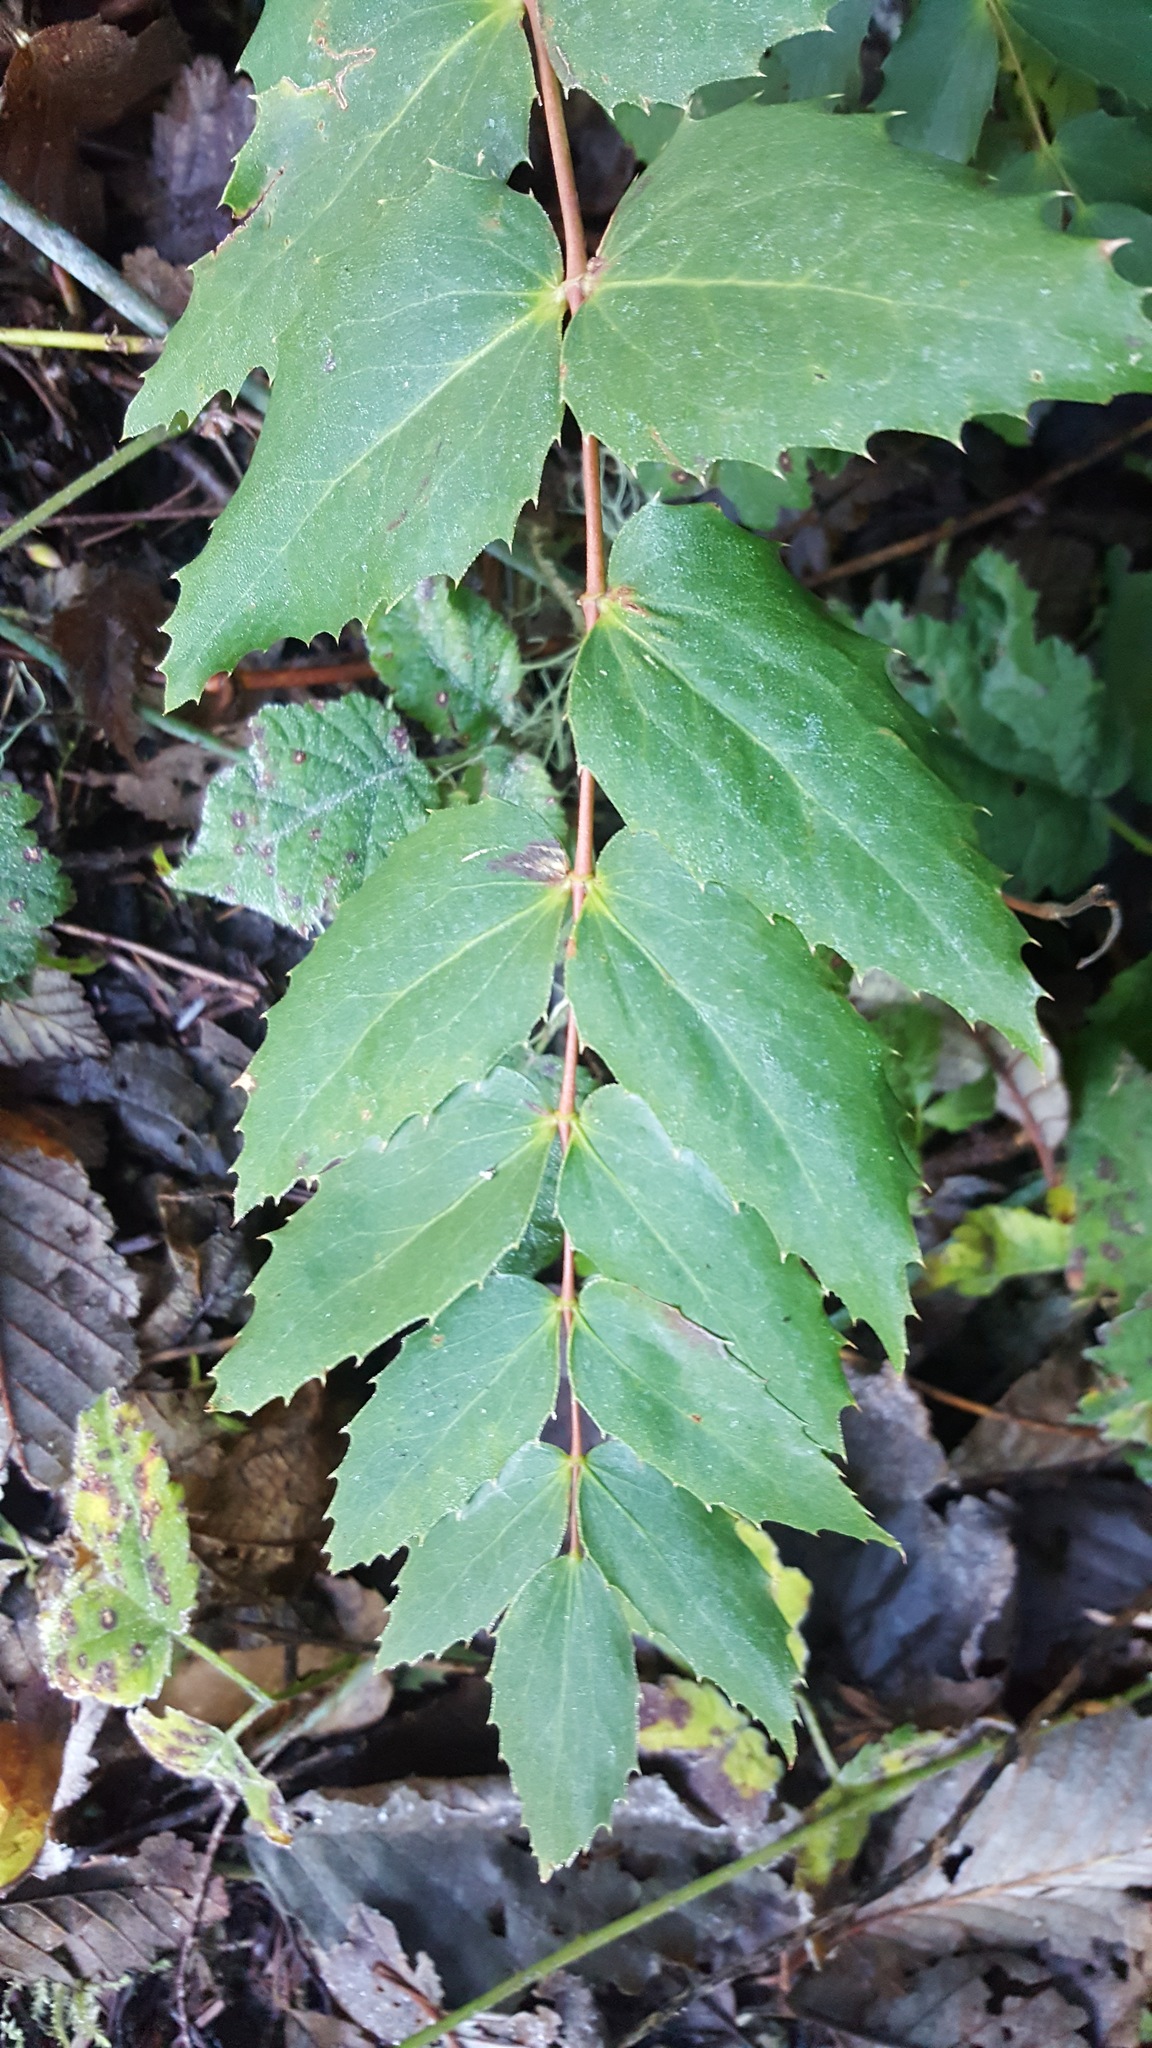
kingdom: Plantae
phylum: Tracheophyta
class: Magnoliopsida
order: Ranunculales
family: Berberidaceae
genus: Mahonia
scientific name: Mahonia nervosa
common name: Cascade oregon-grape
